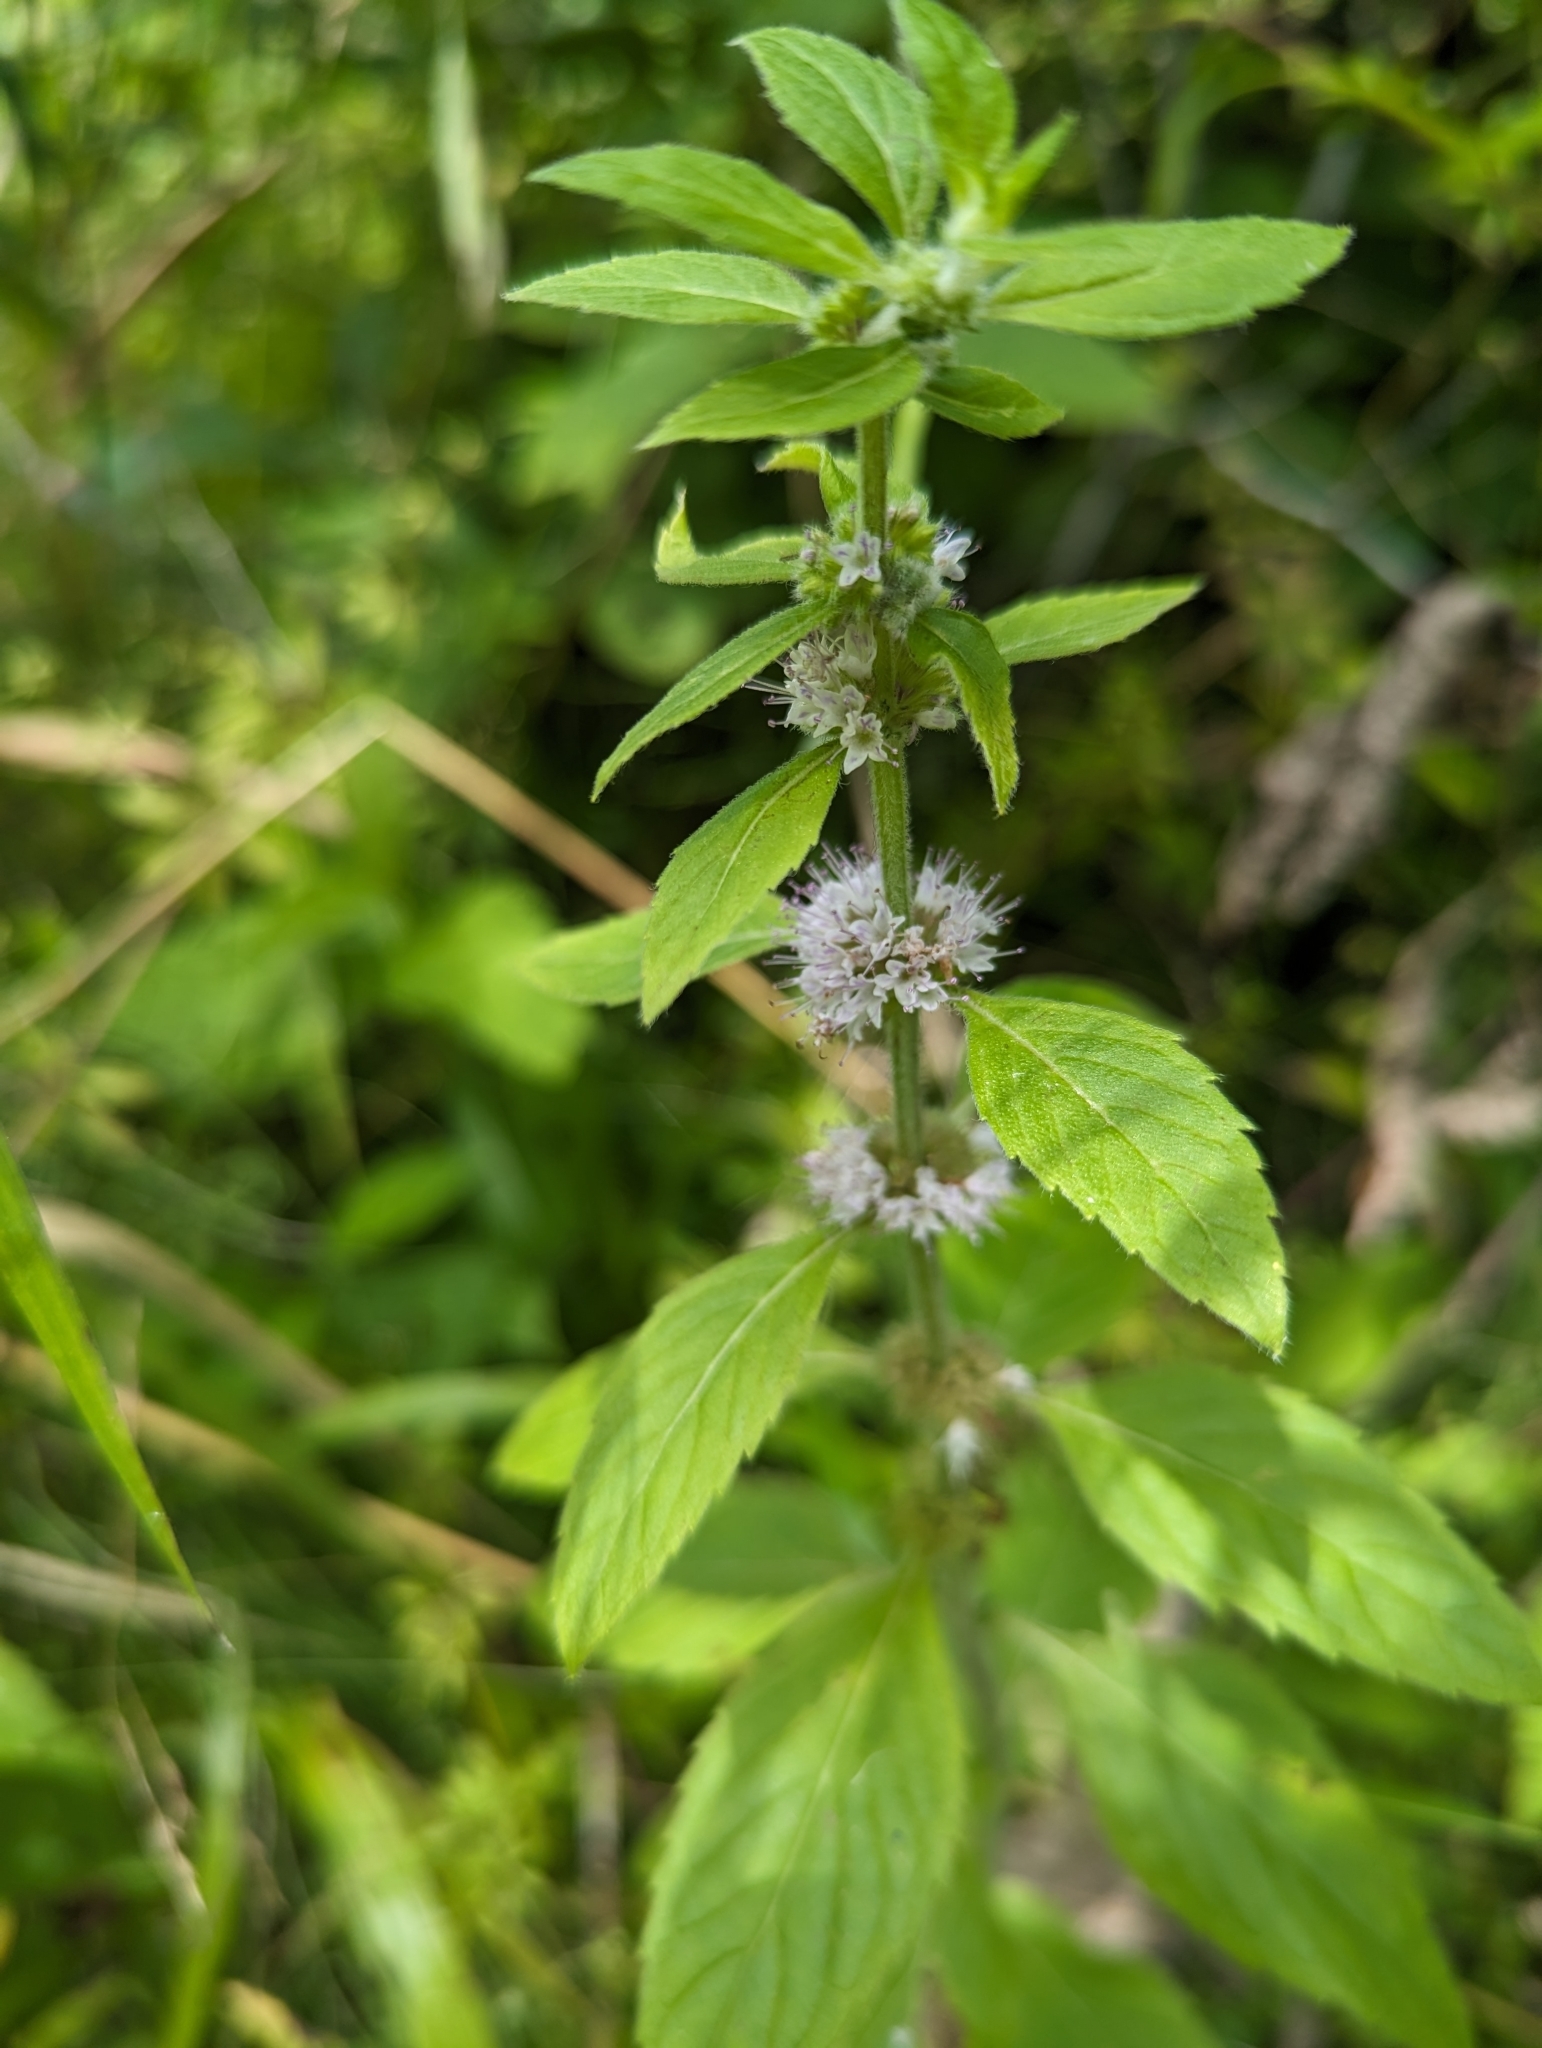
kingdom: Plantae
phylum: Tracheophyta
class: Magnoliopsida
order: Lamiales
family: Lamiaceae
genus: Mentha
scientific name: Mentha canadensis
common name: American corn mint
